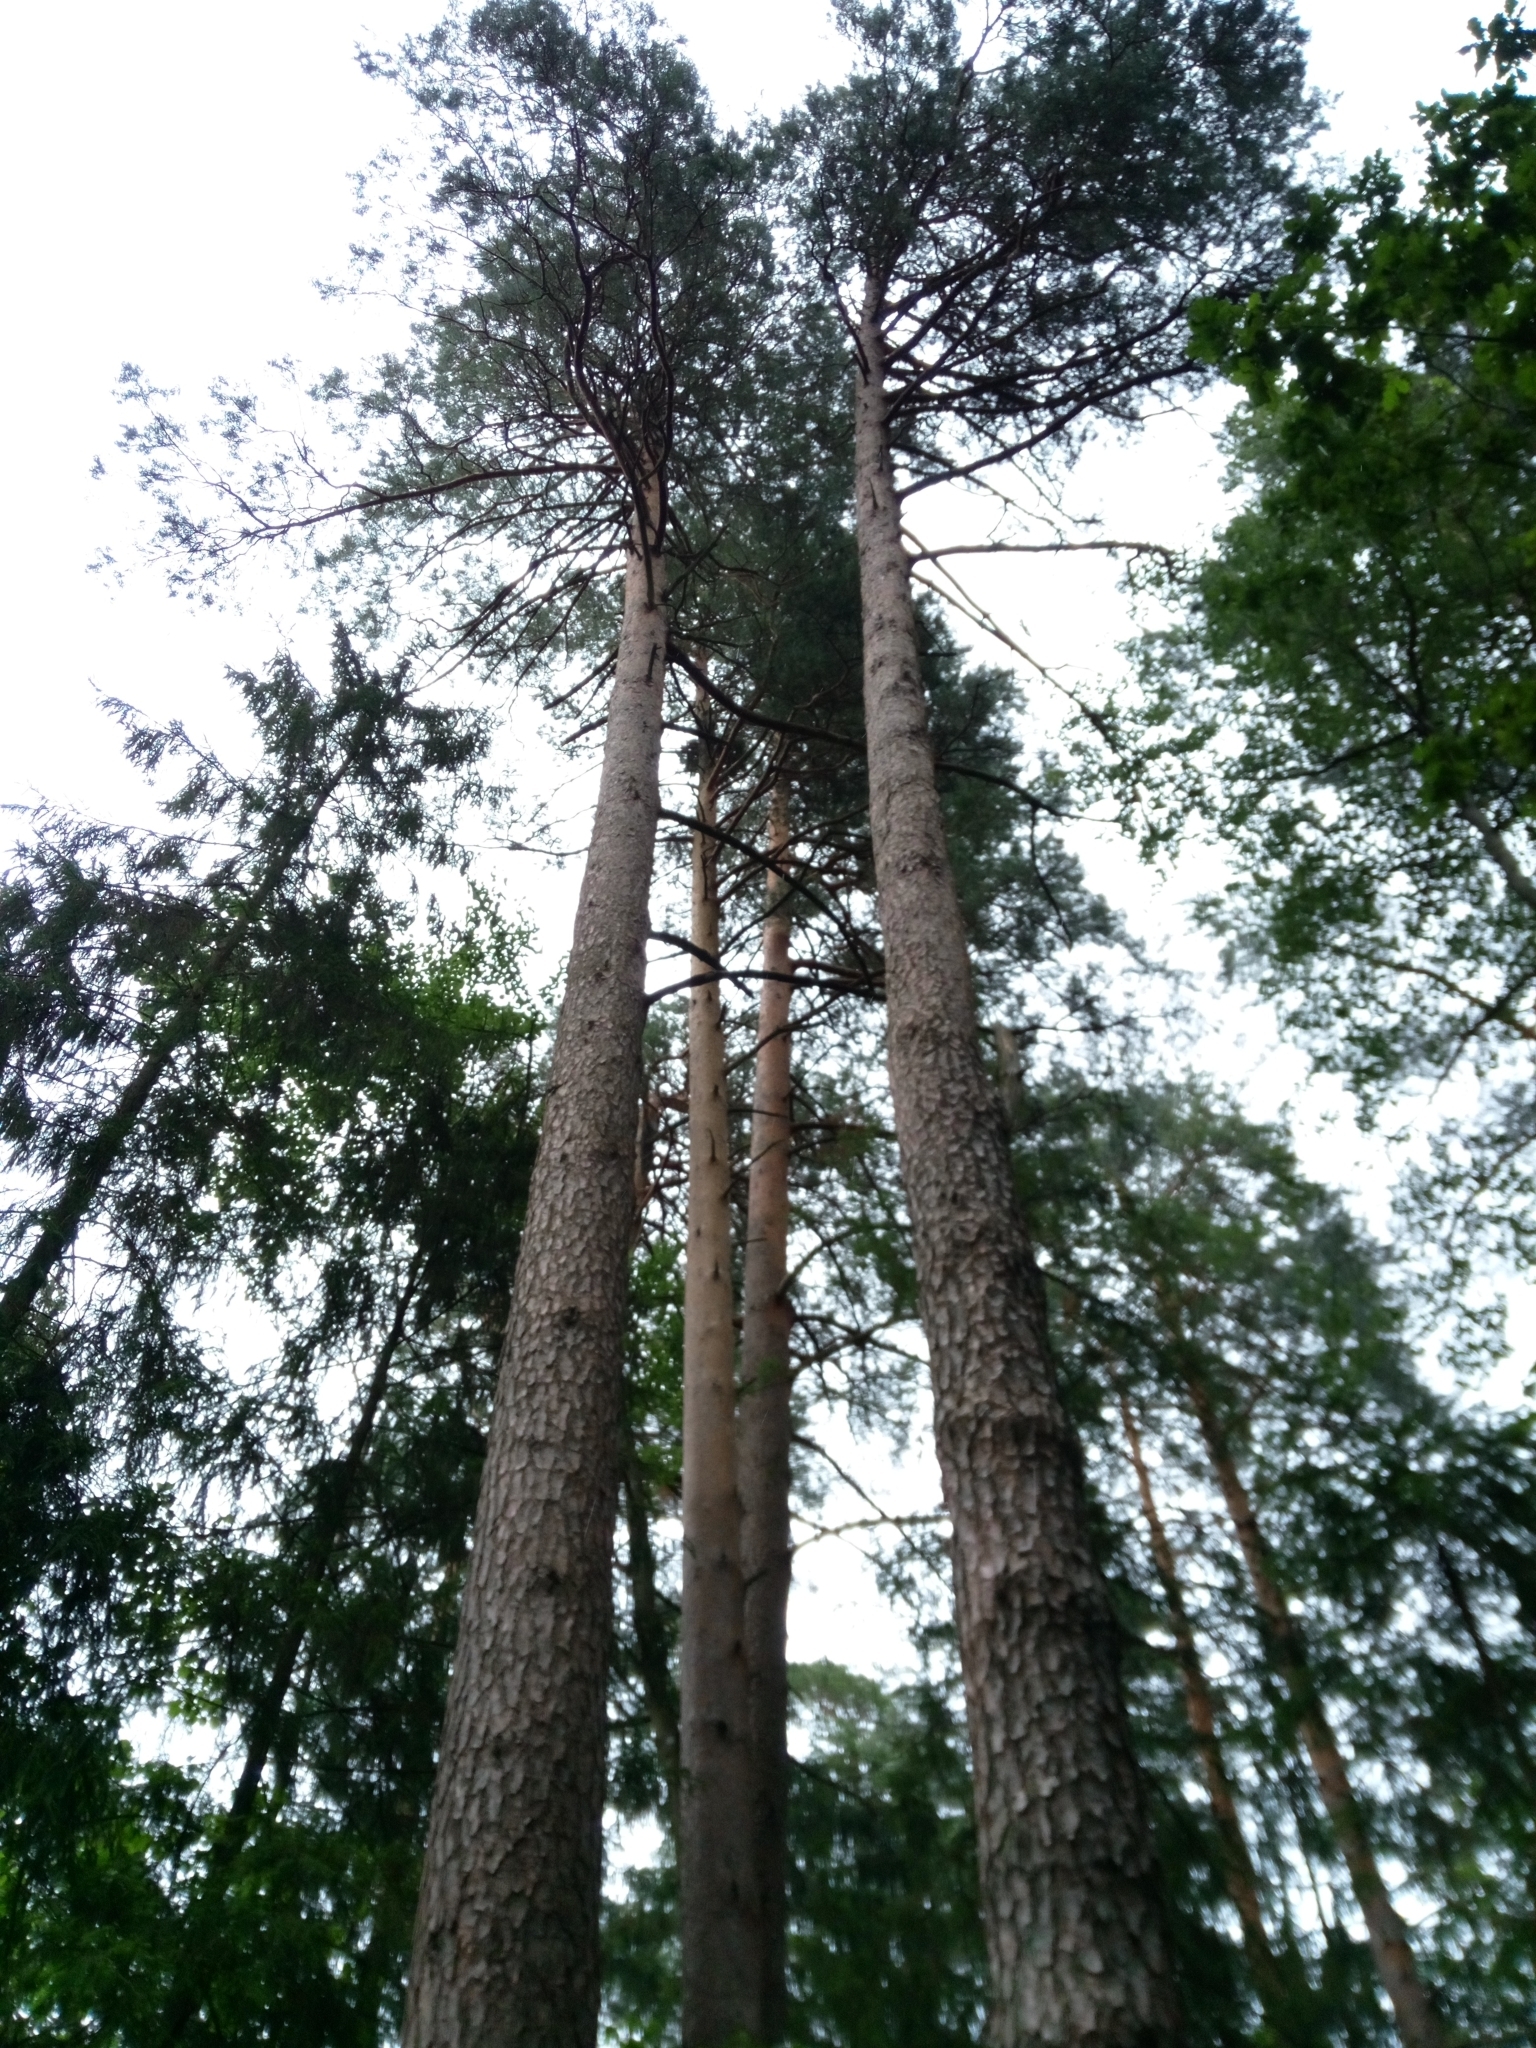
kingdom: Plantae
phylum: Tracheophyta
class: Pinopsida
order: Pinales
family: Pinaceae
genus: Pinus
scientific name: Pinus sylvestris
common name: Scots pine
